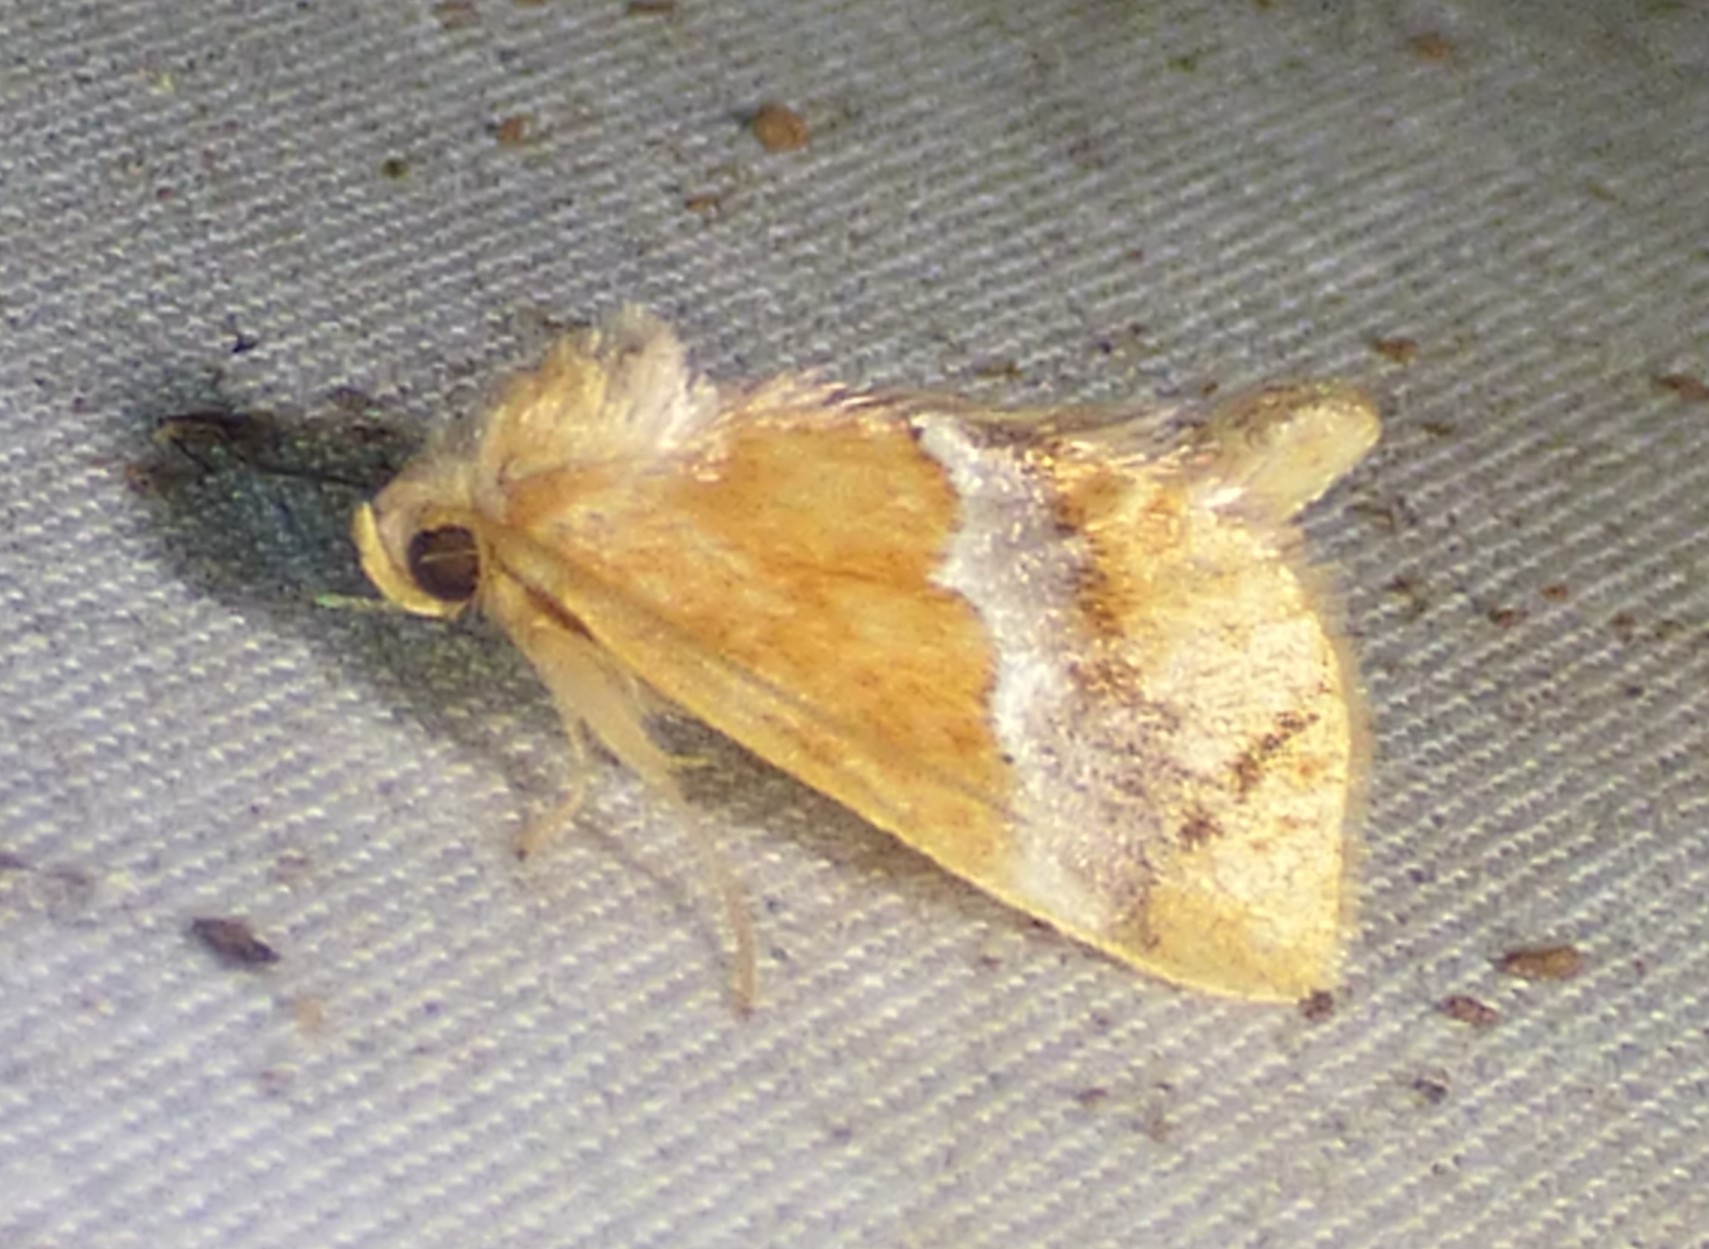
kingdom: Animalia
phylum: Arthropoda
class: Insecta
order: Lepidoptera
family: Limacodidae
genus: Lithacodes
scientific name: Lithacodes fasciola
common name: Yellow-shouldered slug moth
